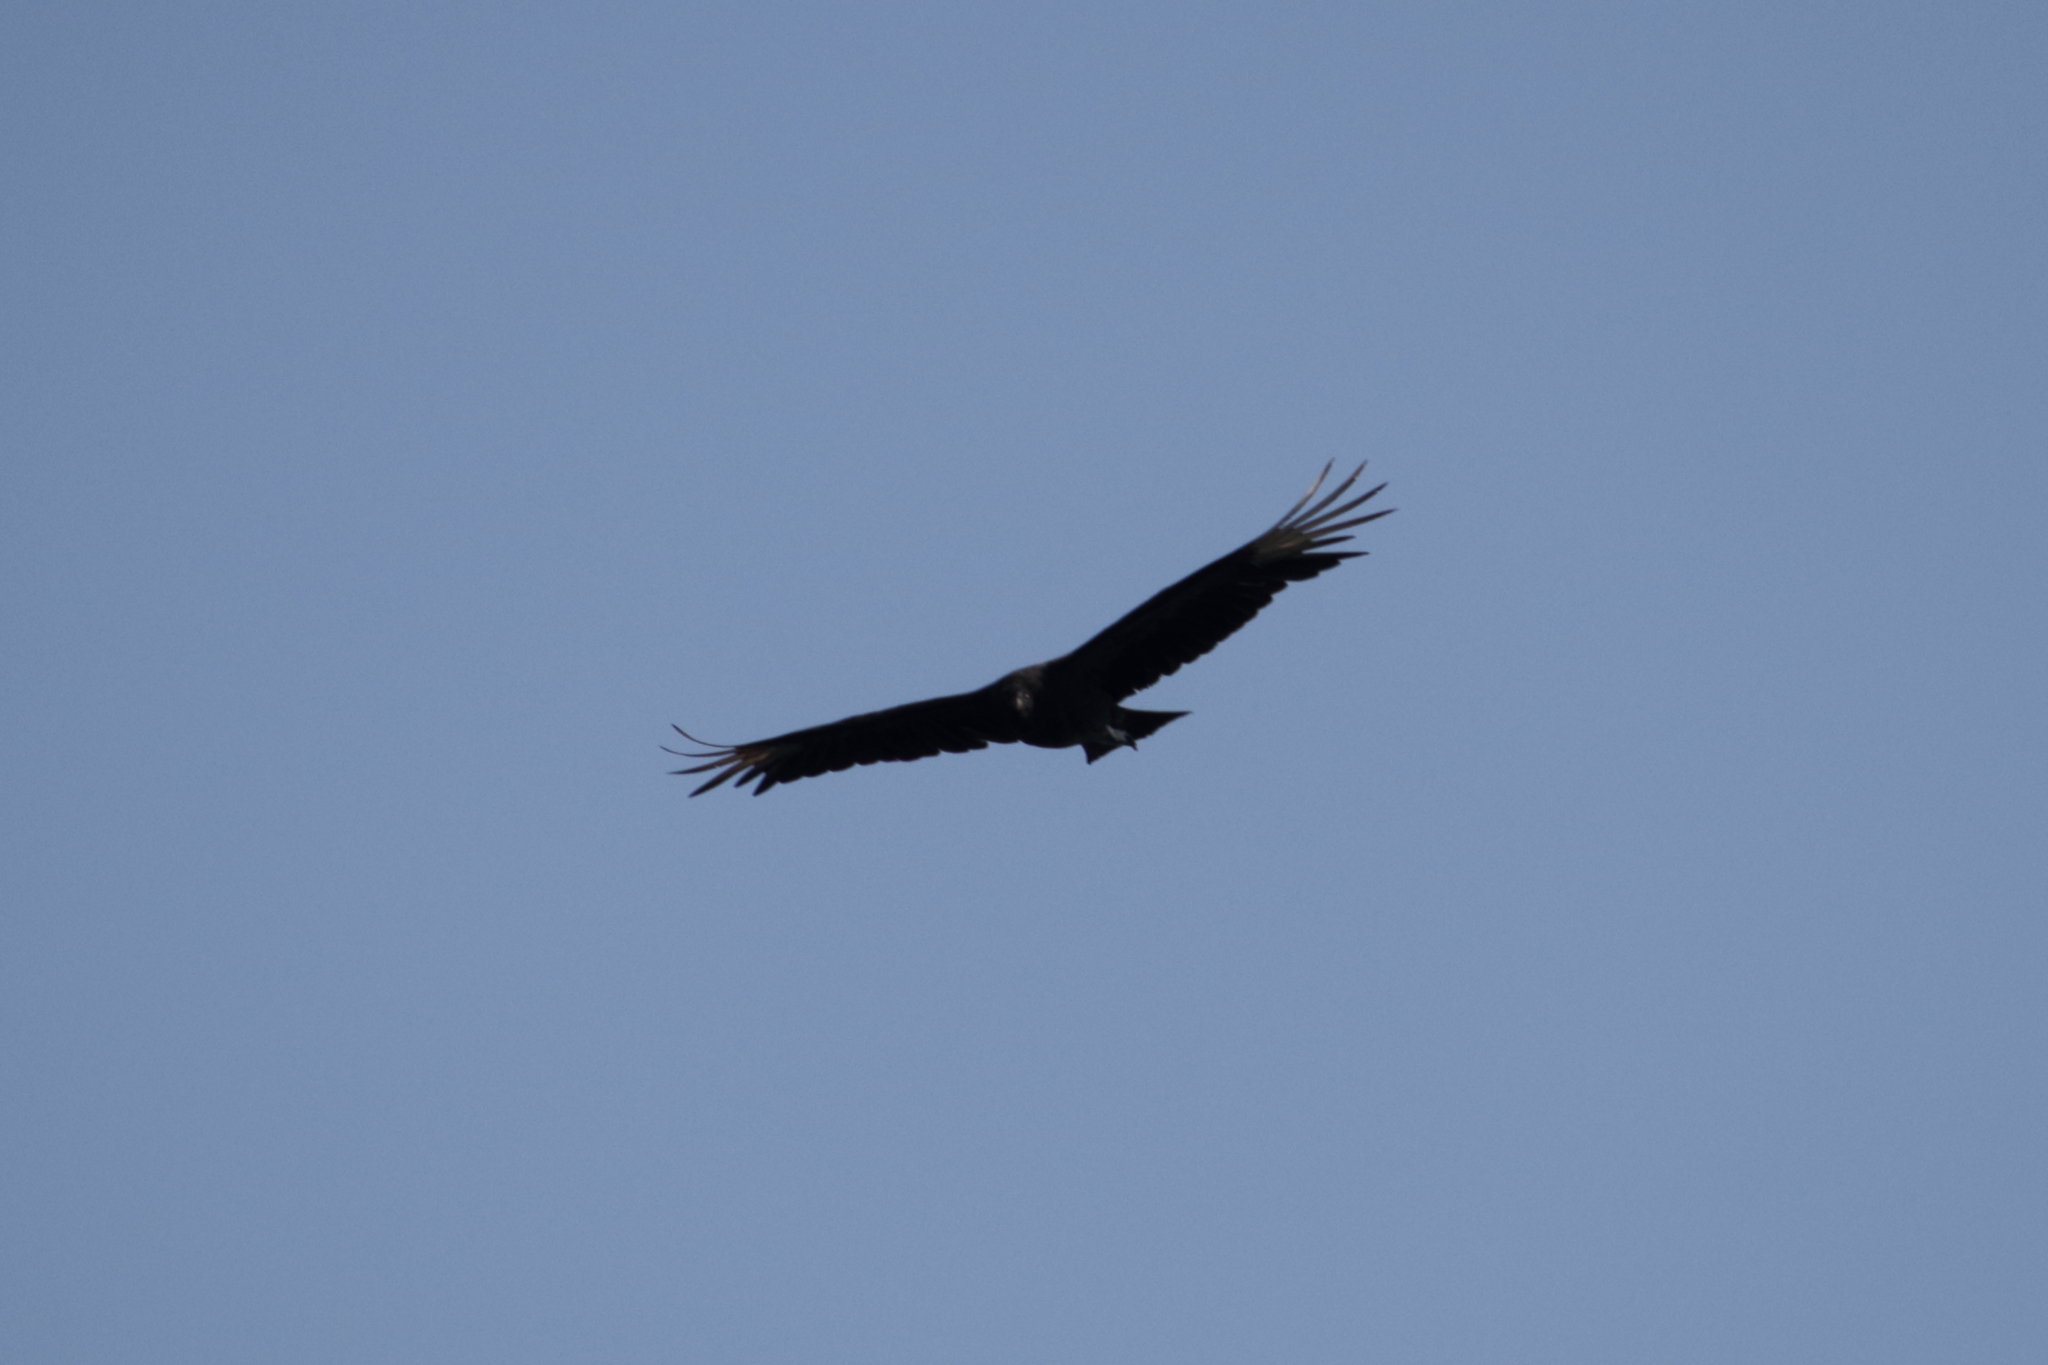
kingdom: Animalia
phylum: Chordata
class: Aves
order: Accipitriformes
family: Cathartidae
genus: Coragyps
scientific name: Coragyps atratus
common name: Black vulture
